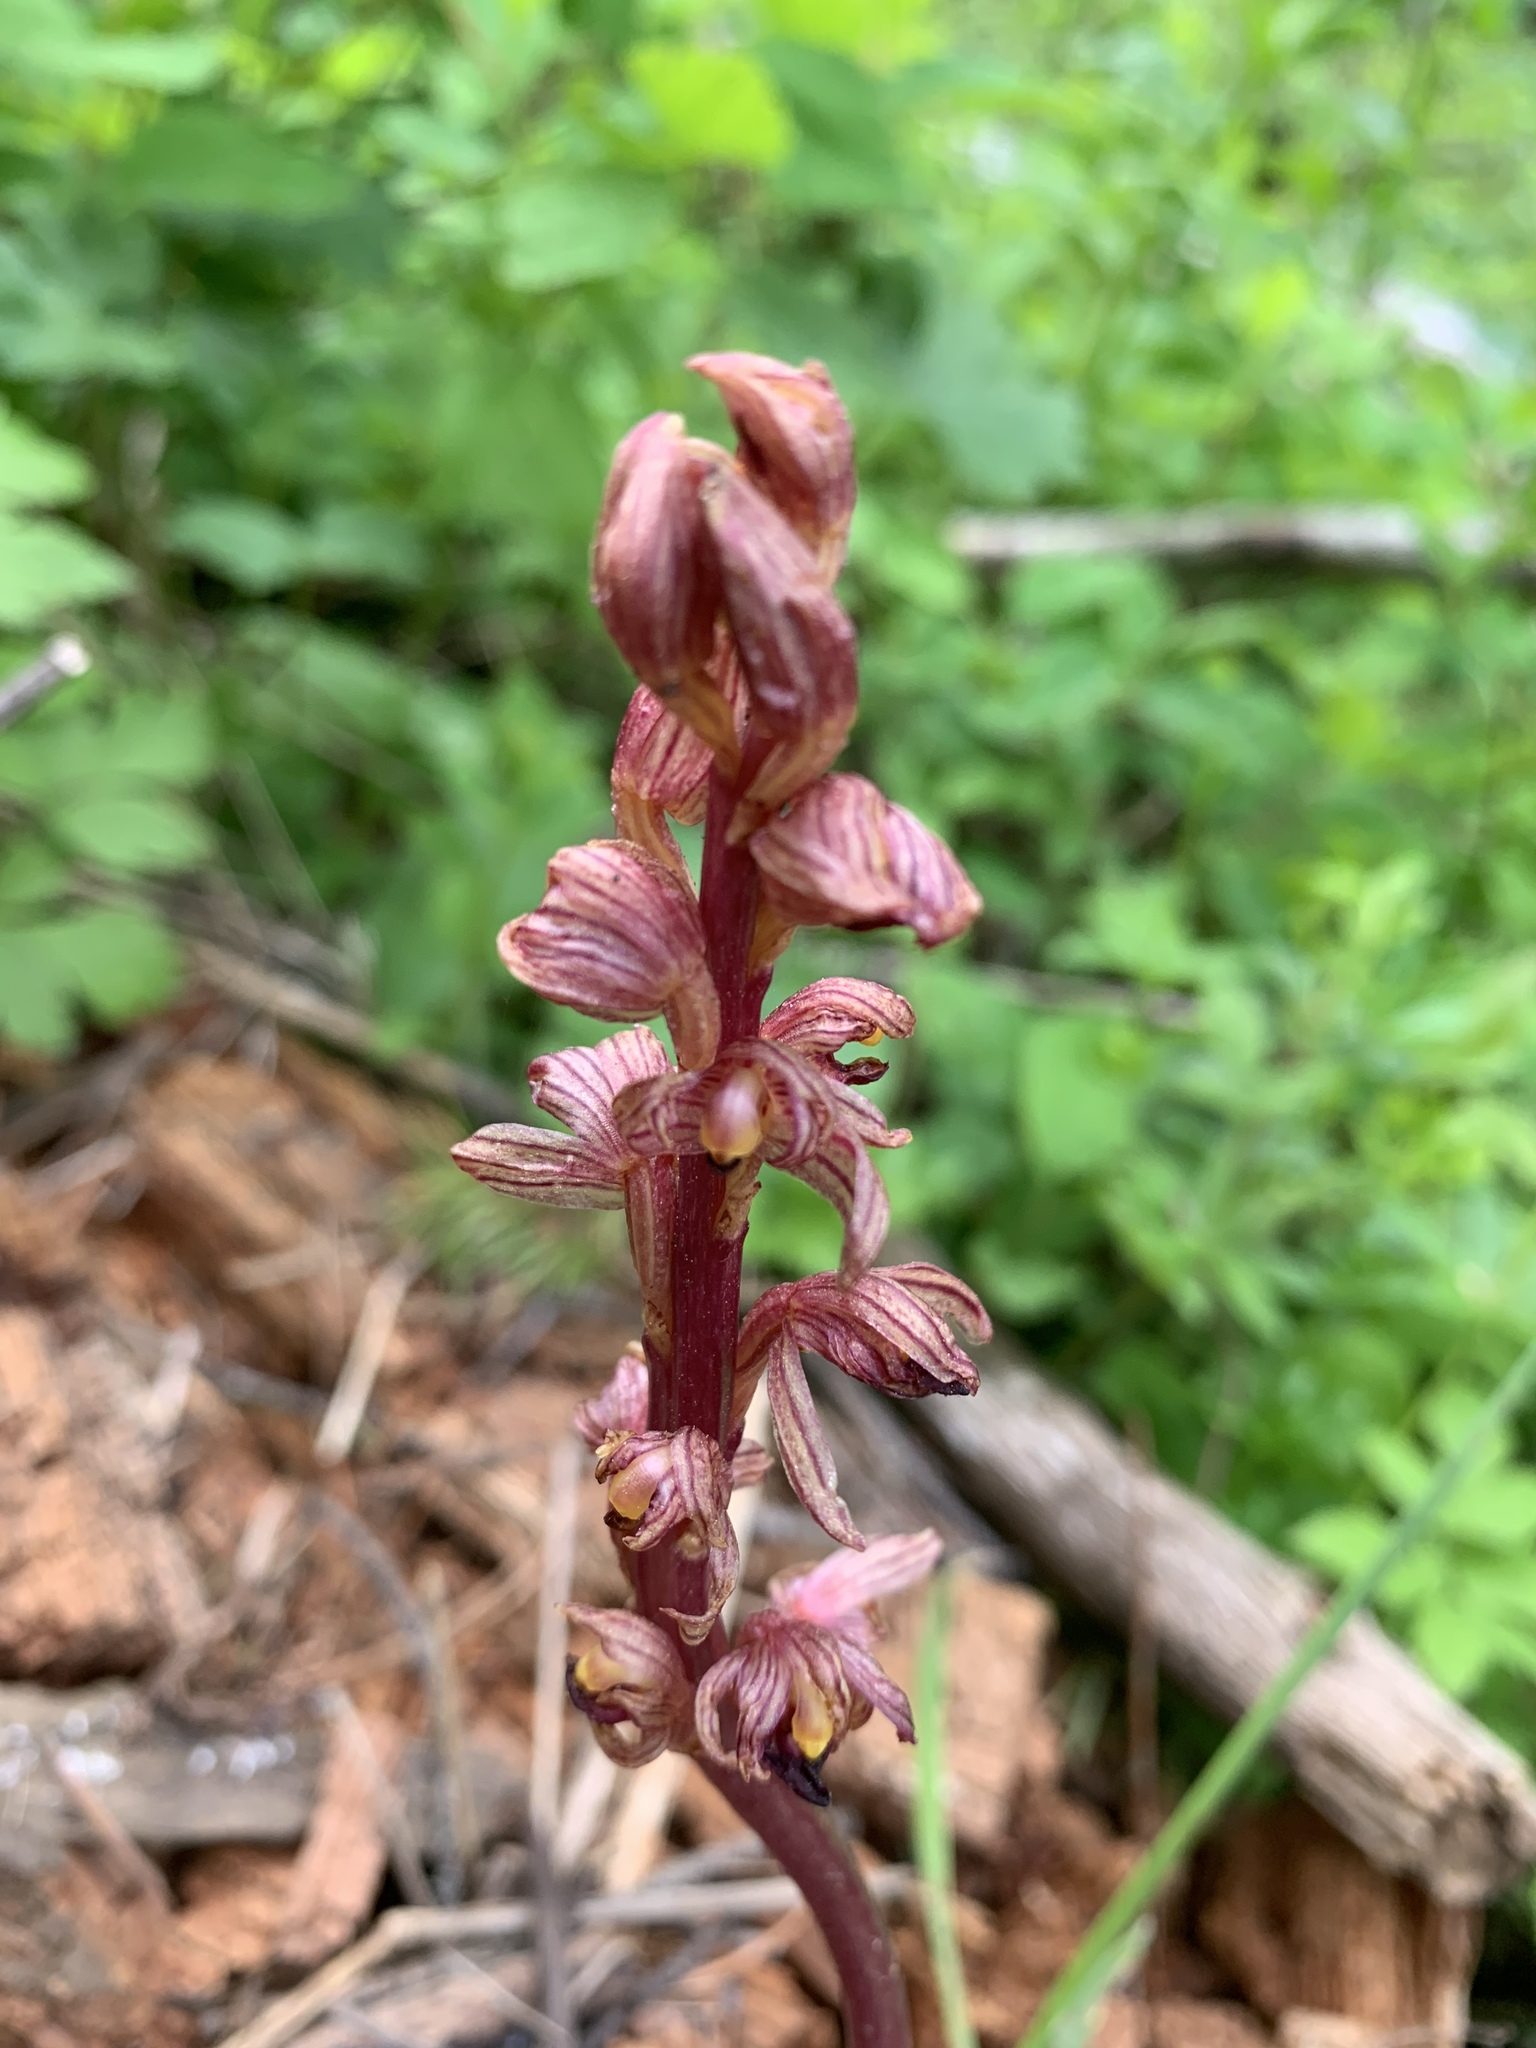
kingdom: Plantae
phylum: Tracheophyta
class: Liliopsida
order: Asparagales
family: Orchidaceae
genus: Corallorhiza
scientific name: Corallorhiza striata
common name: Hooded coralroot
